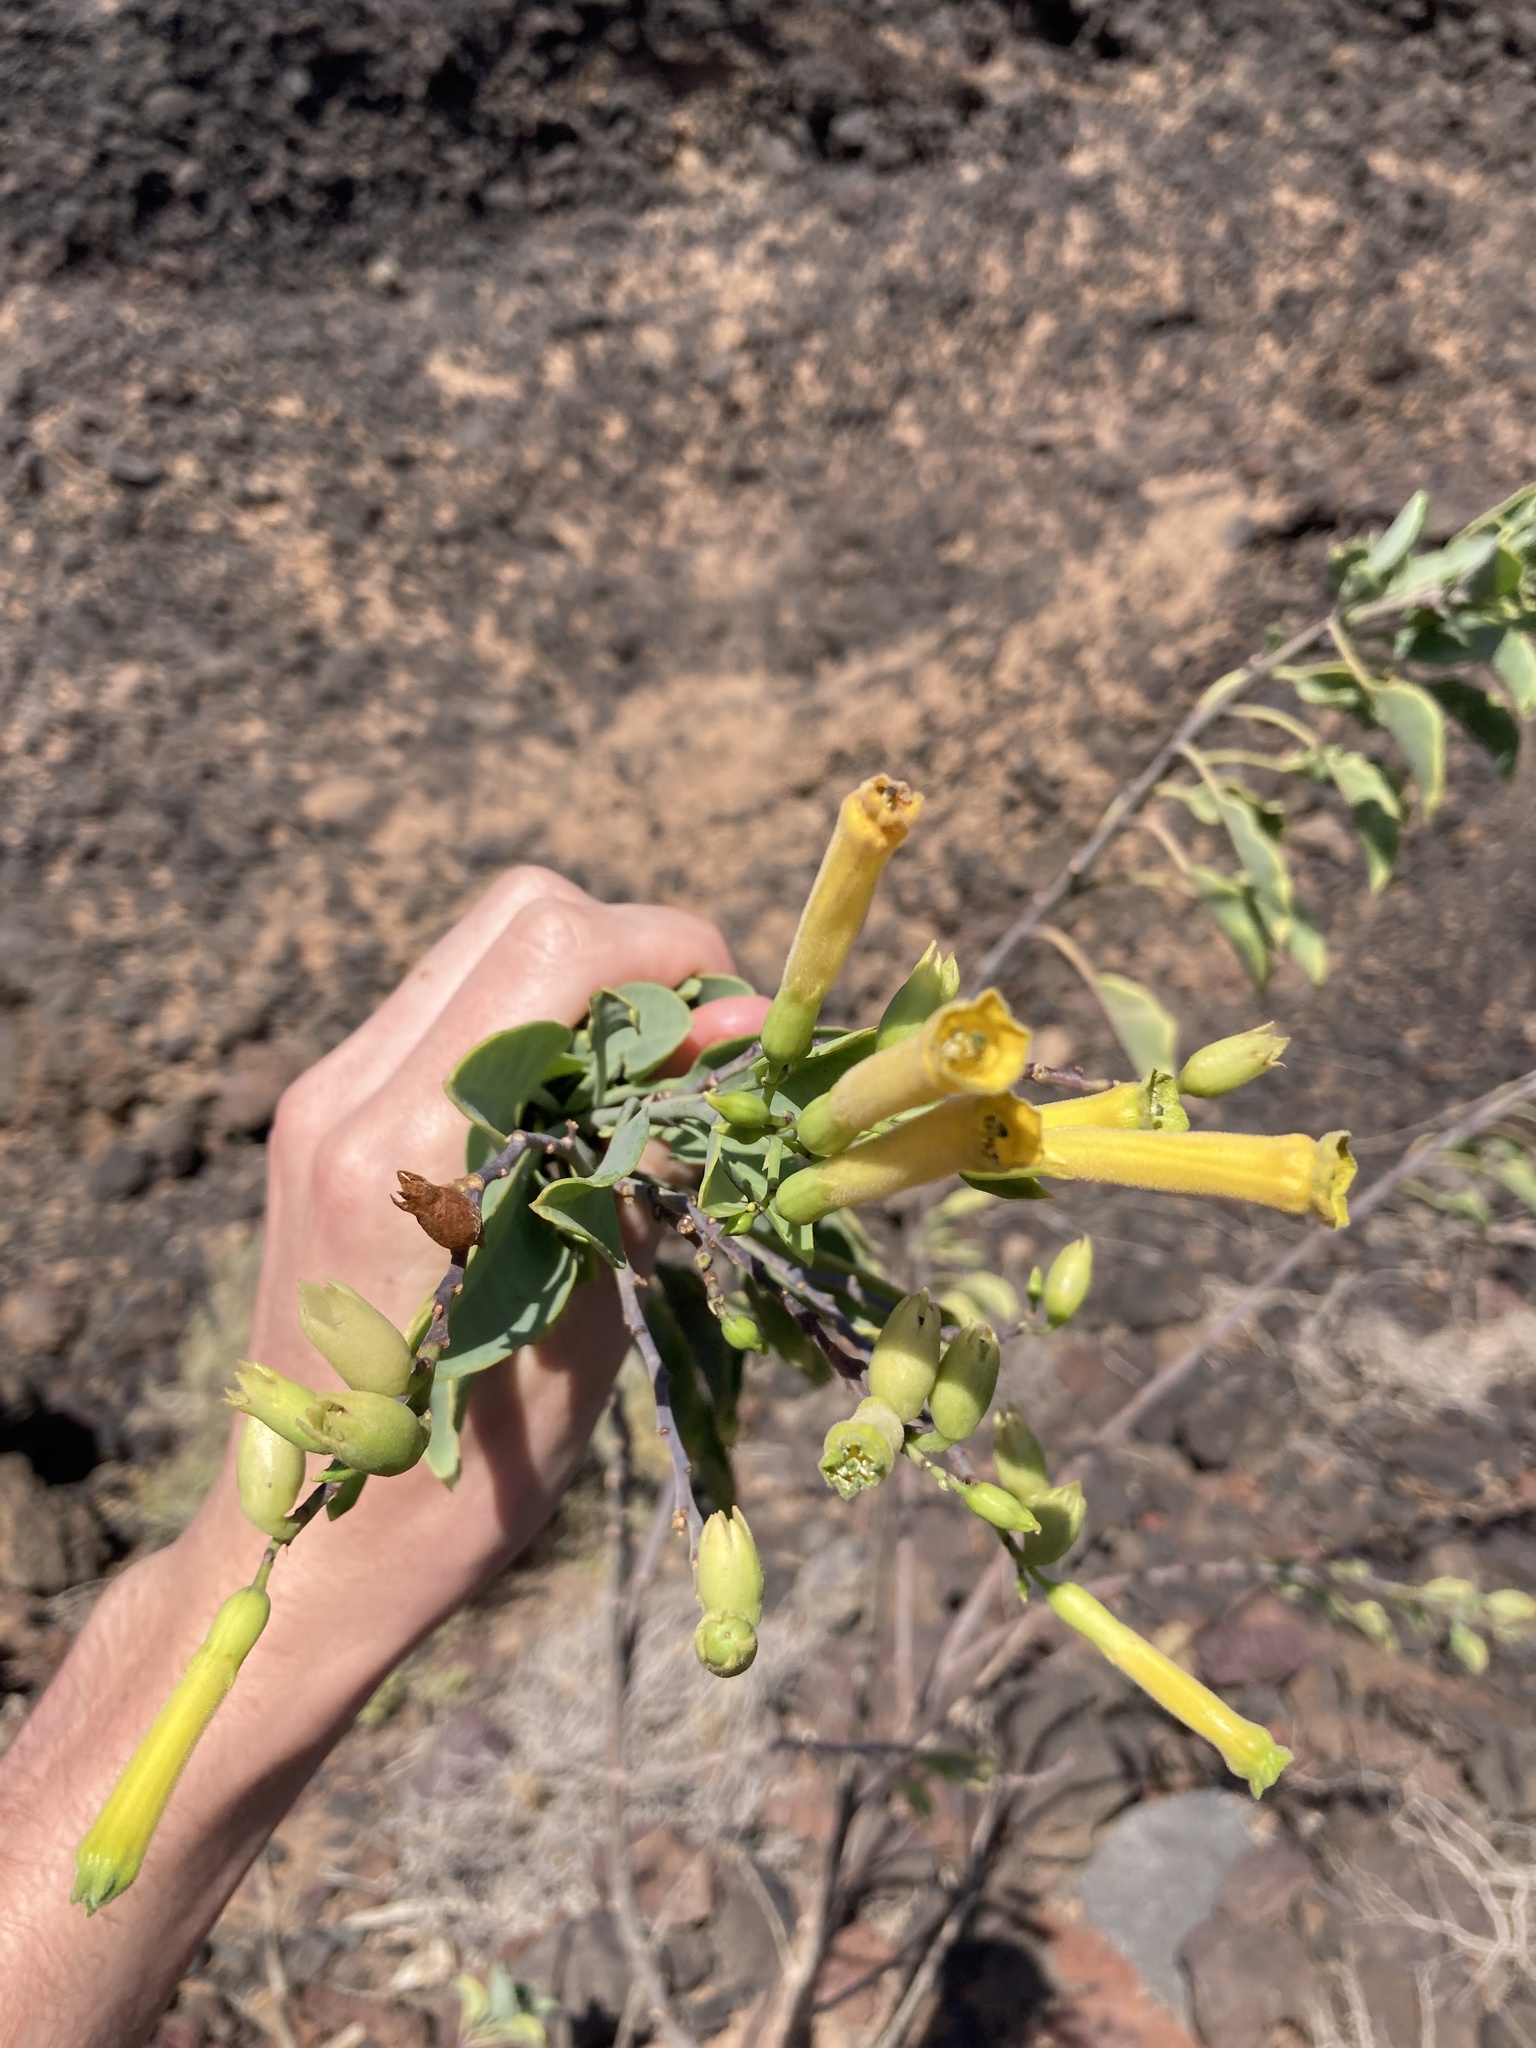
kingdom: Plantae
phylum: Tracheophyta
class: Magnoliopsida
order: Solanales
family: Solanaceae
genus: Nicotiana
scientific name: Nicotiana glauca
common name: Tree tobacco
